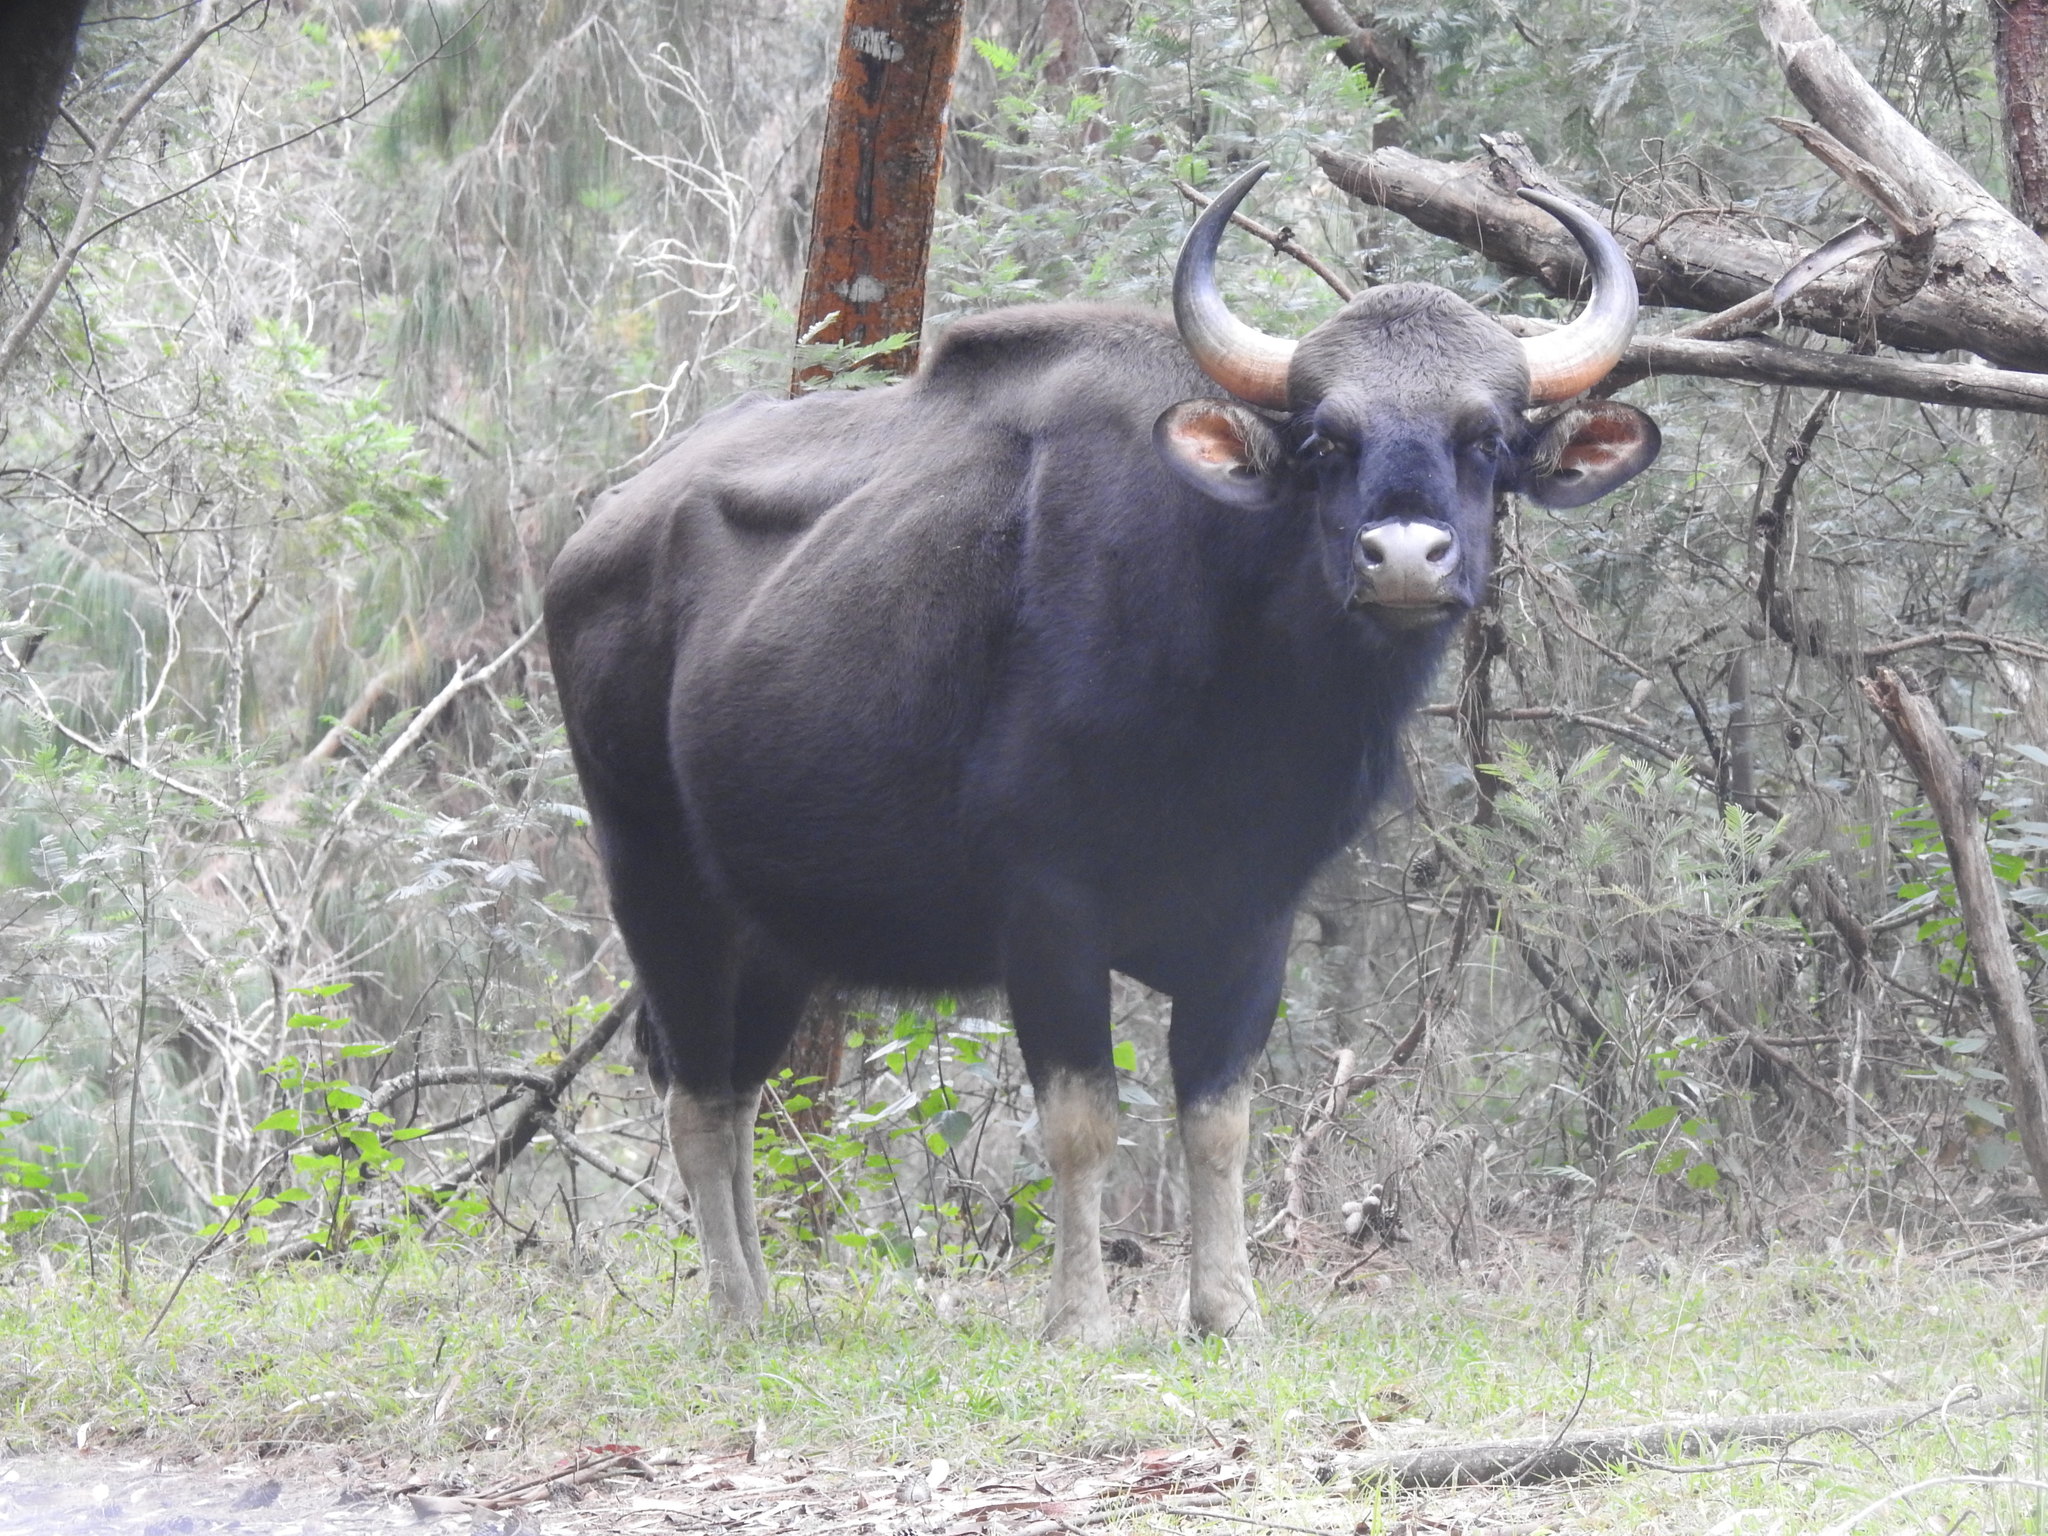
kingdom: Animalia
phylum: Chordata
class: Mammalia
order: Artiodactyla
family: Bovidae
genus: Bos
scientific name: Bos frontalis
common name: Gaur
